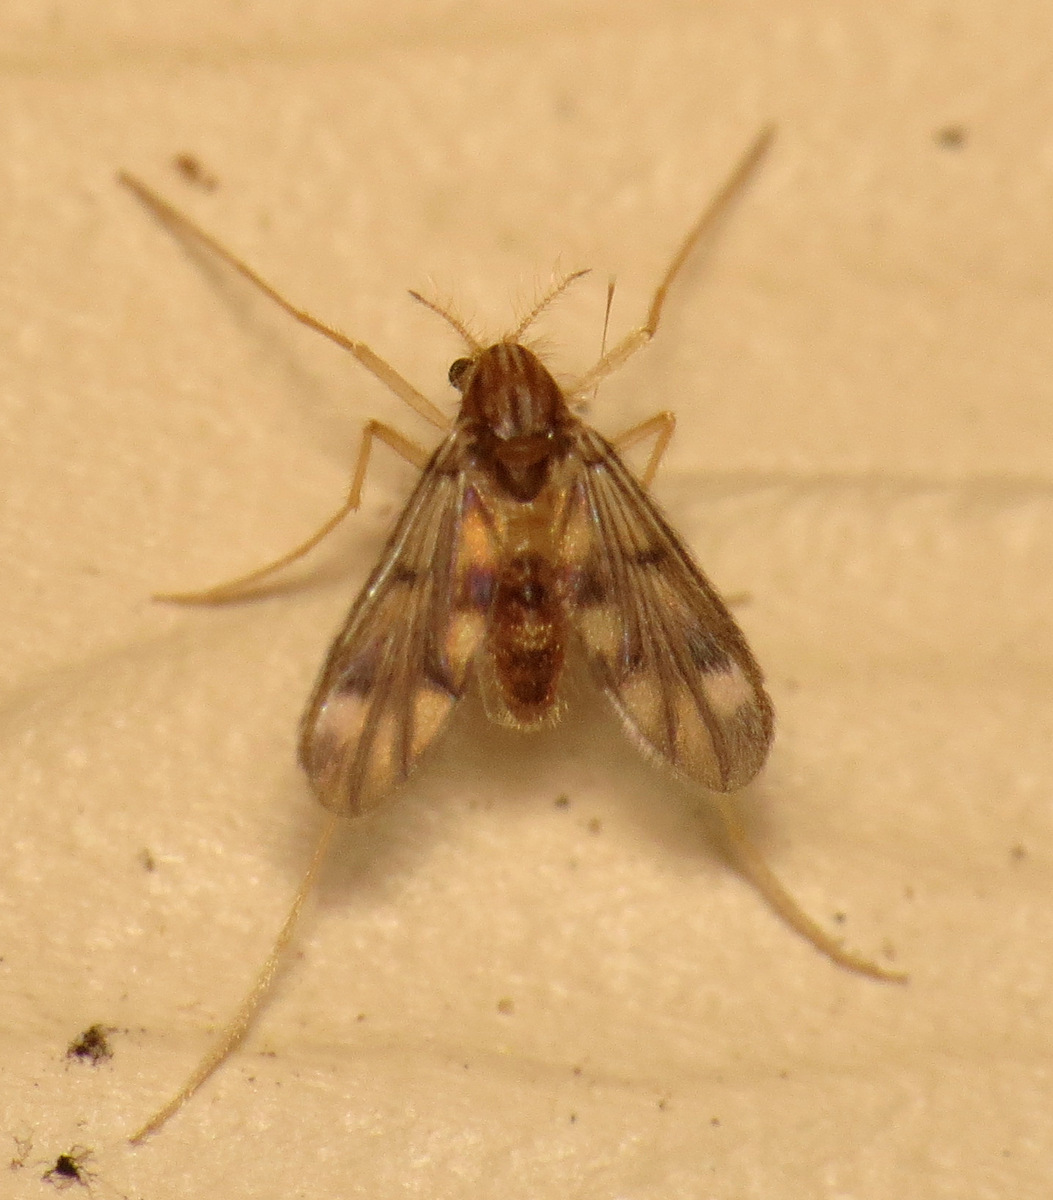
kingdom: Animalia
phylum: Arthropoda
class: Insecta
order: Diptera
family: Chironomidae
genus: Zavrelimyia
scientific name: Zavrelimyia
